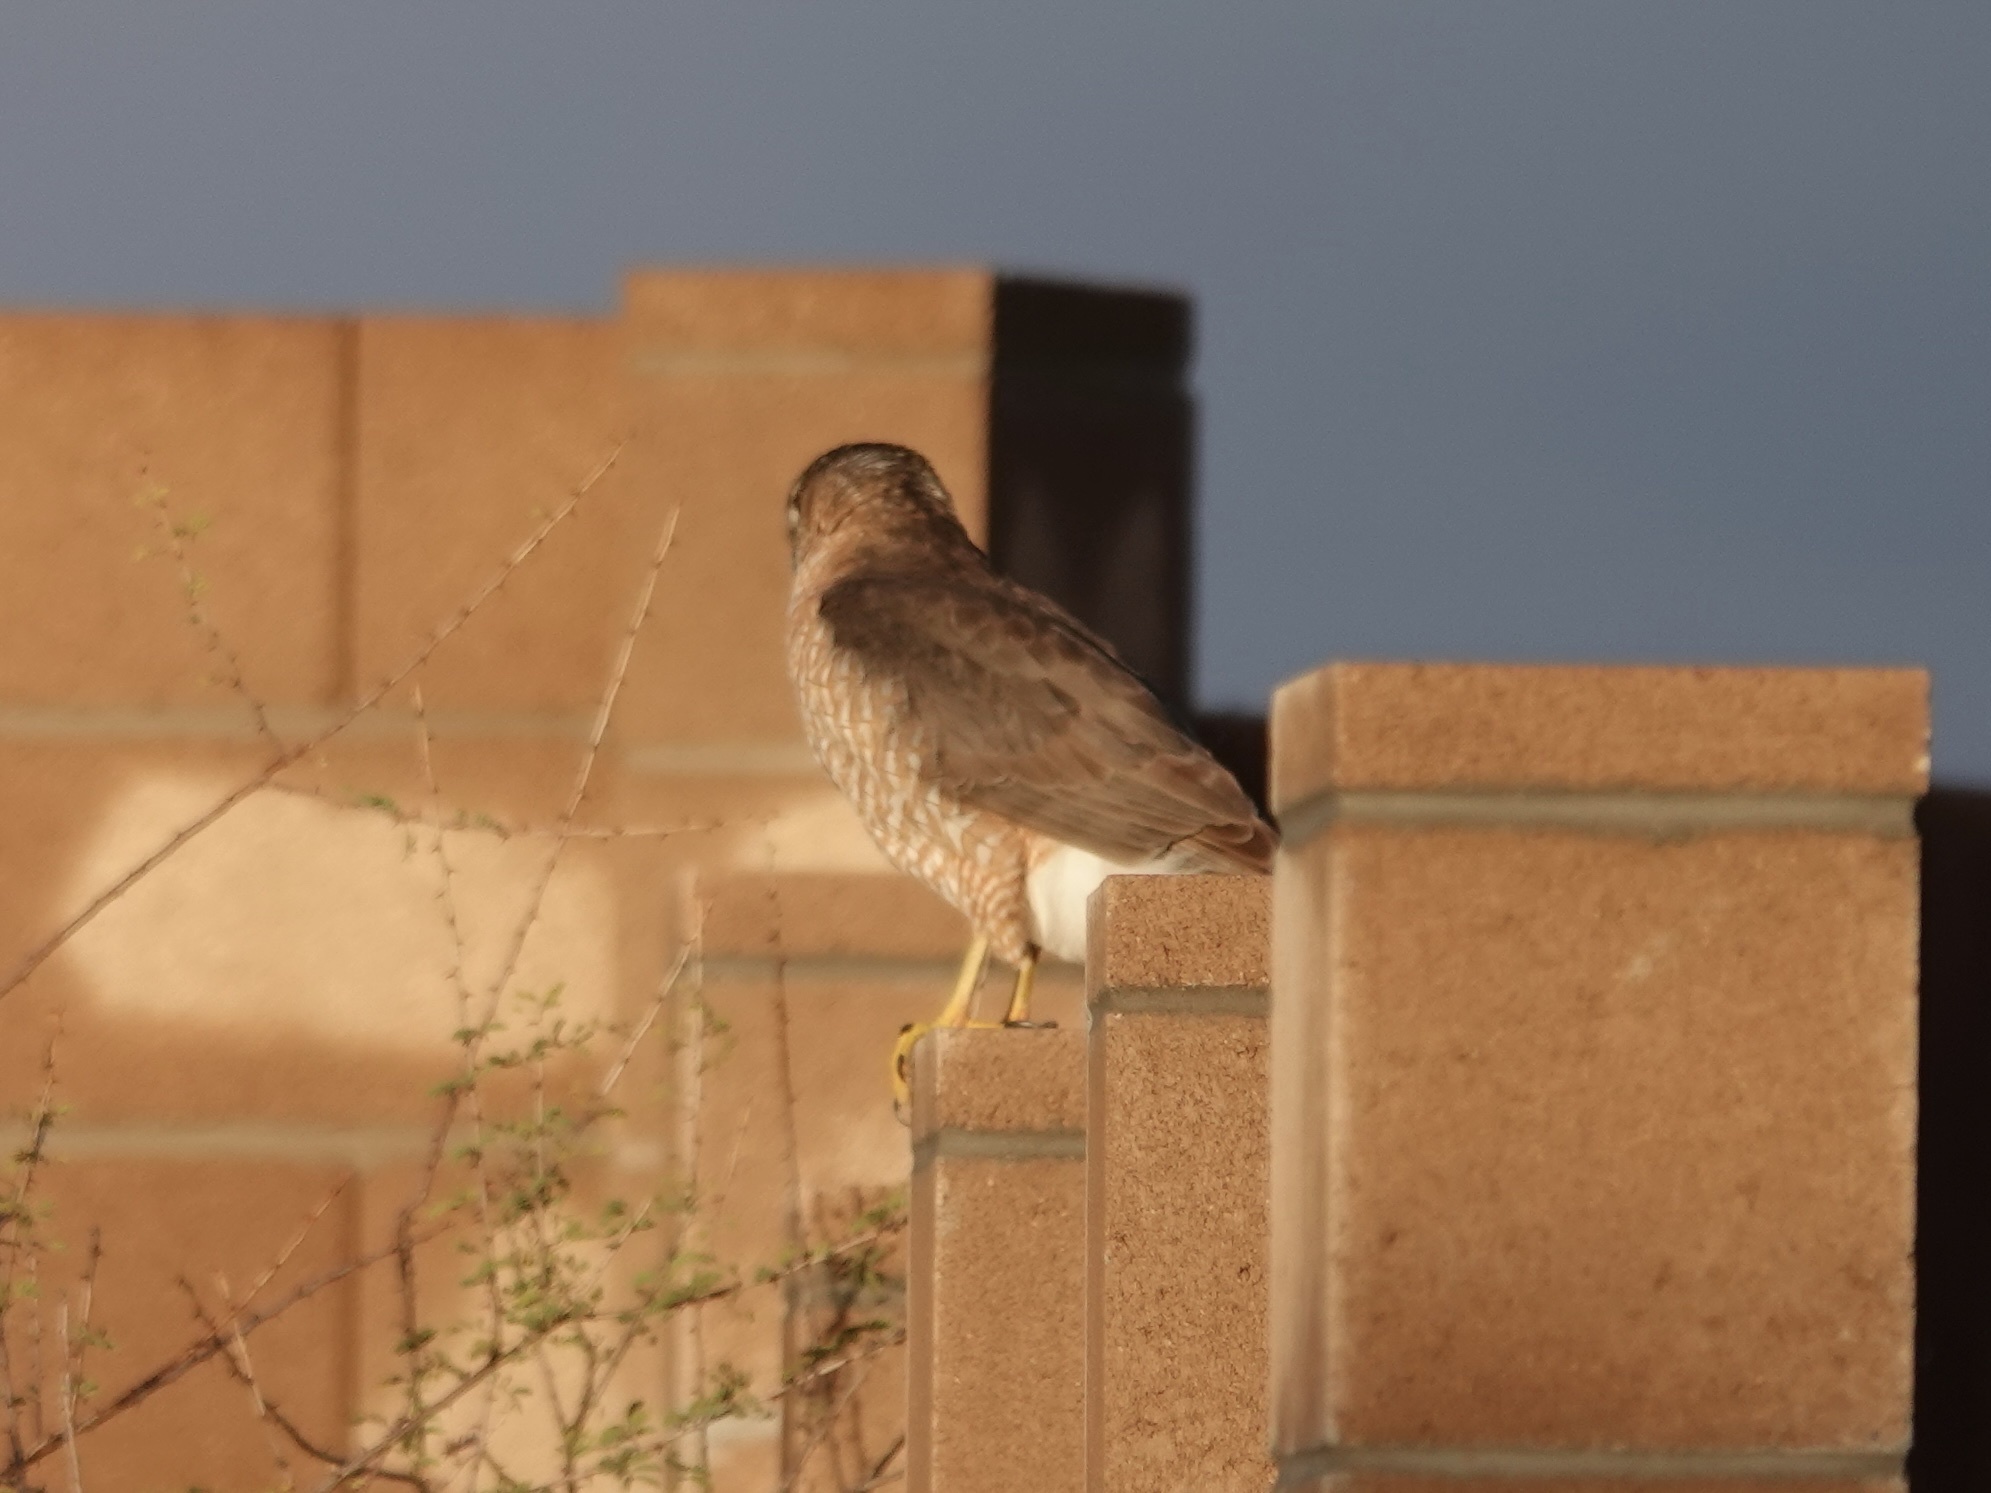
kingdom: Animalia
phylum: Chordata
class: Aves
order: Accipitriformes
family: Accipitridae
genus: Accipiter
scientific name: Accipiter cooperii
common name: Cooper's hawk
